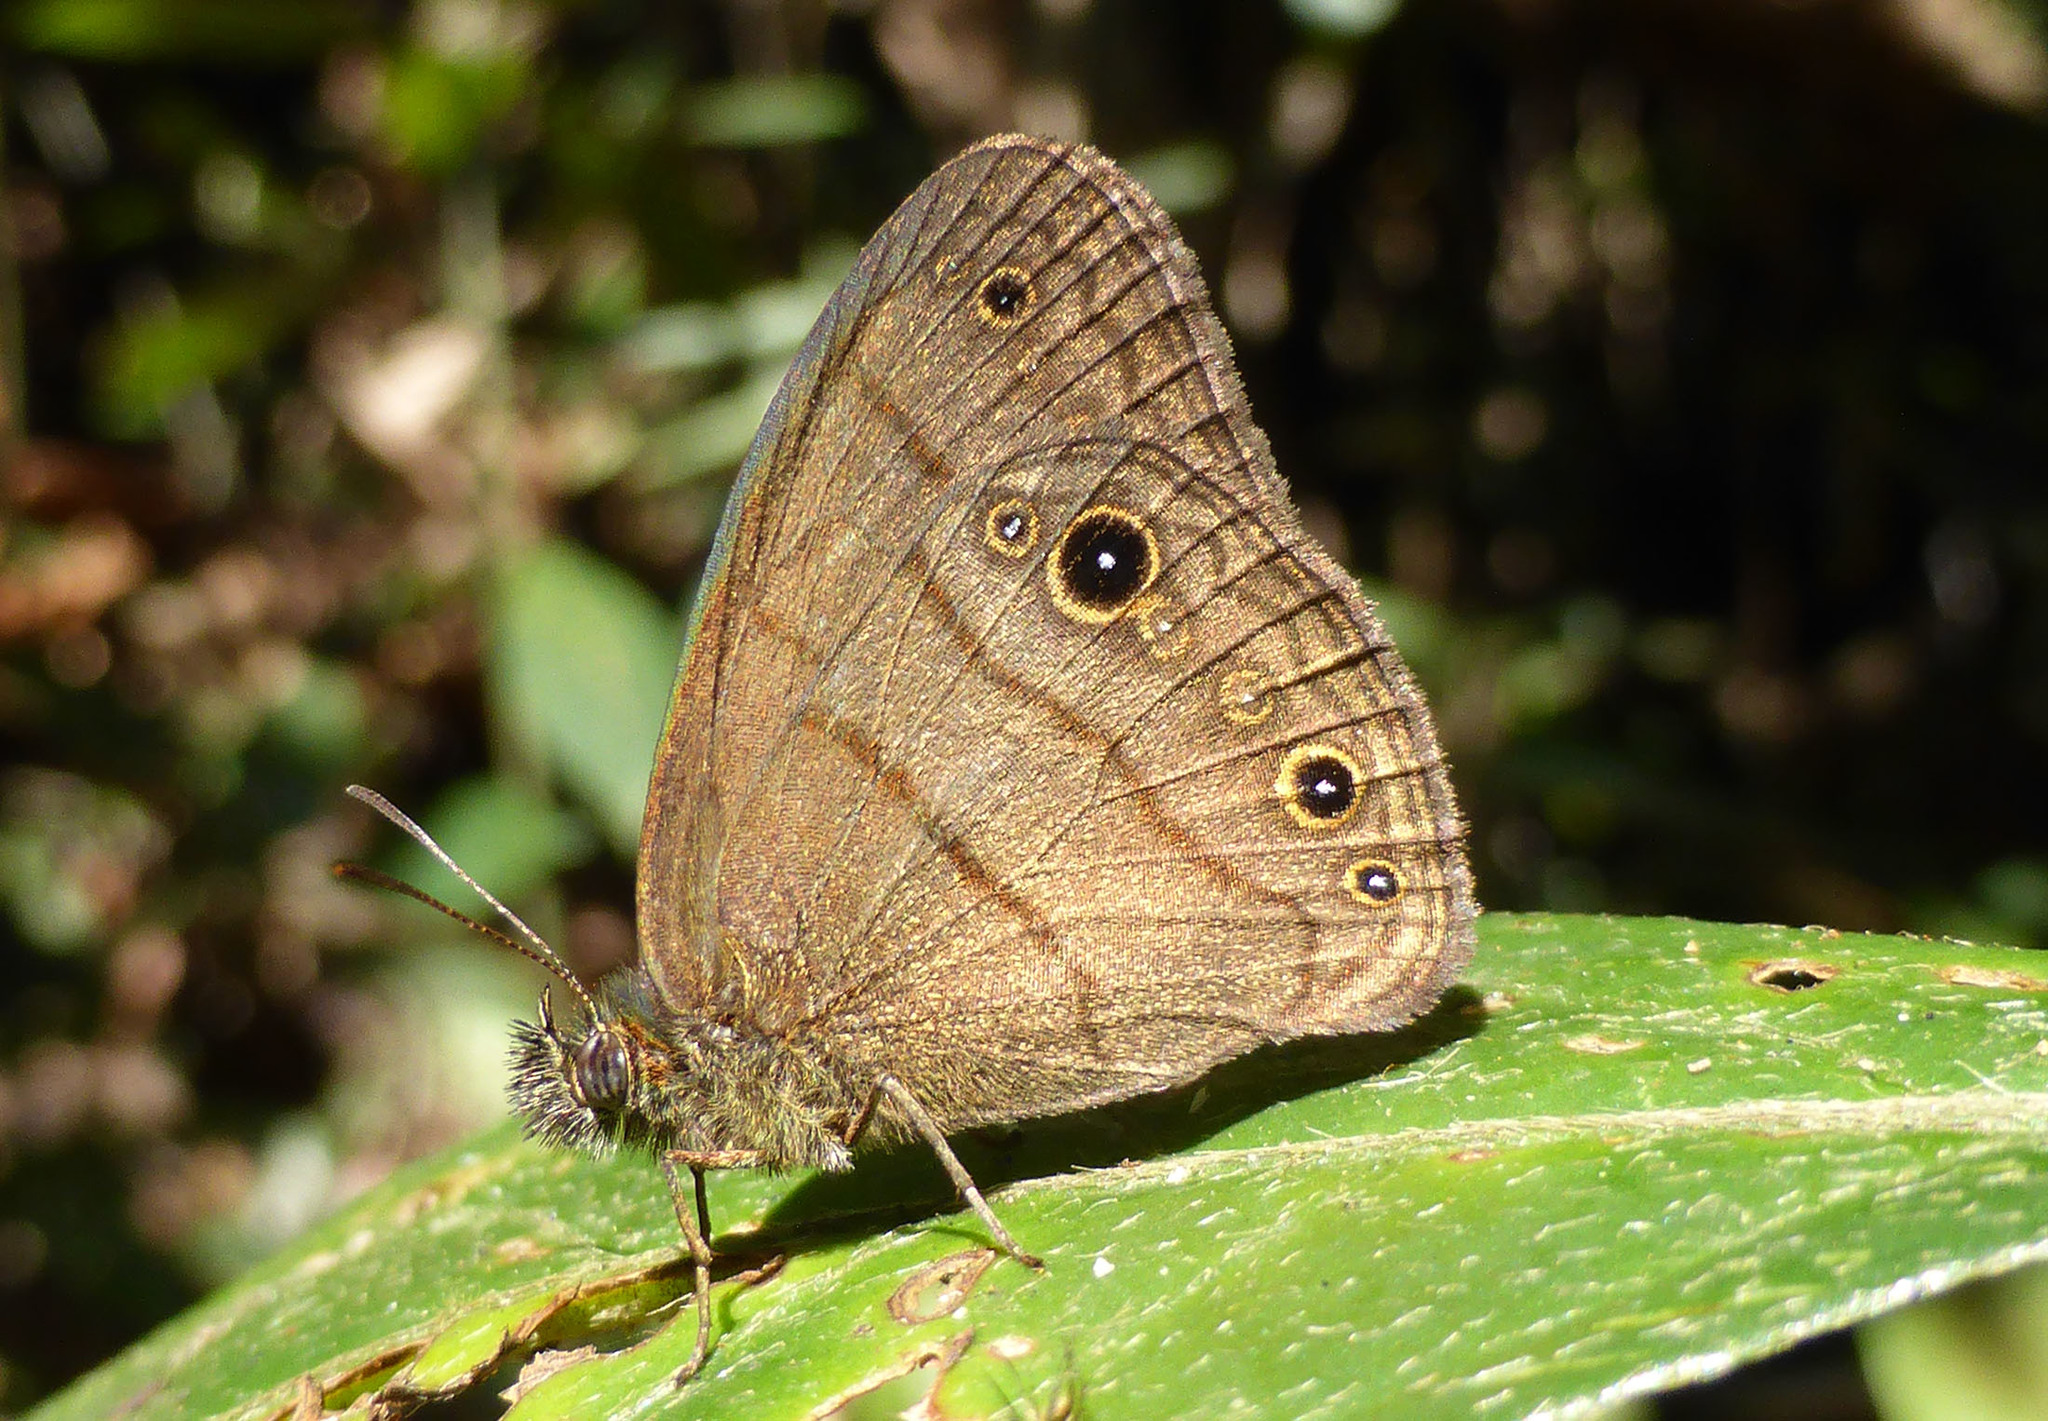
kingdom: Animalia
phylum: Arthropoda
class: Insecta
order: Lepidoptera
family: Nymphalidae
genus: Hermeuptychia
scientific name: Hermeuptychia hermes
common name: Hermes satyr
